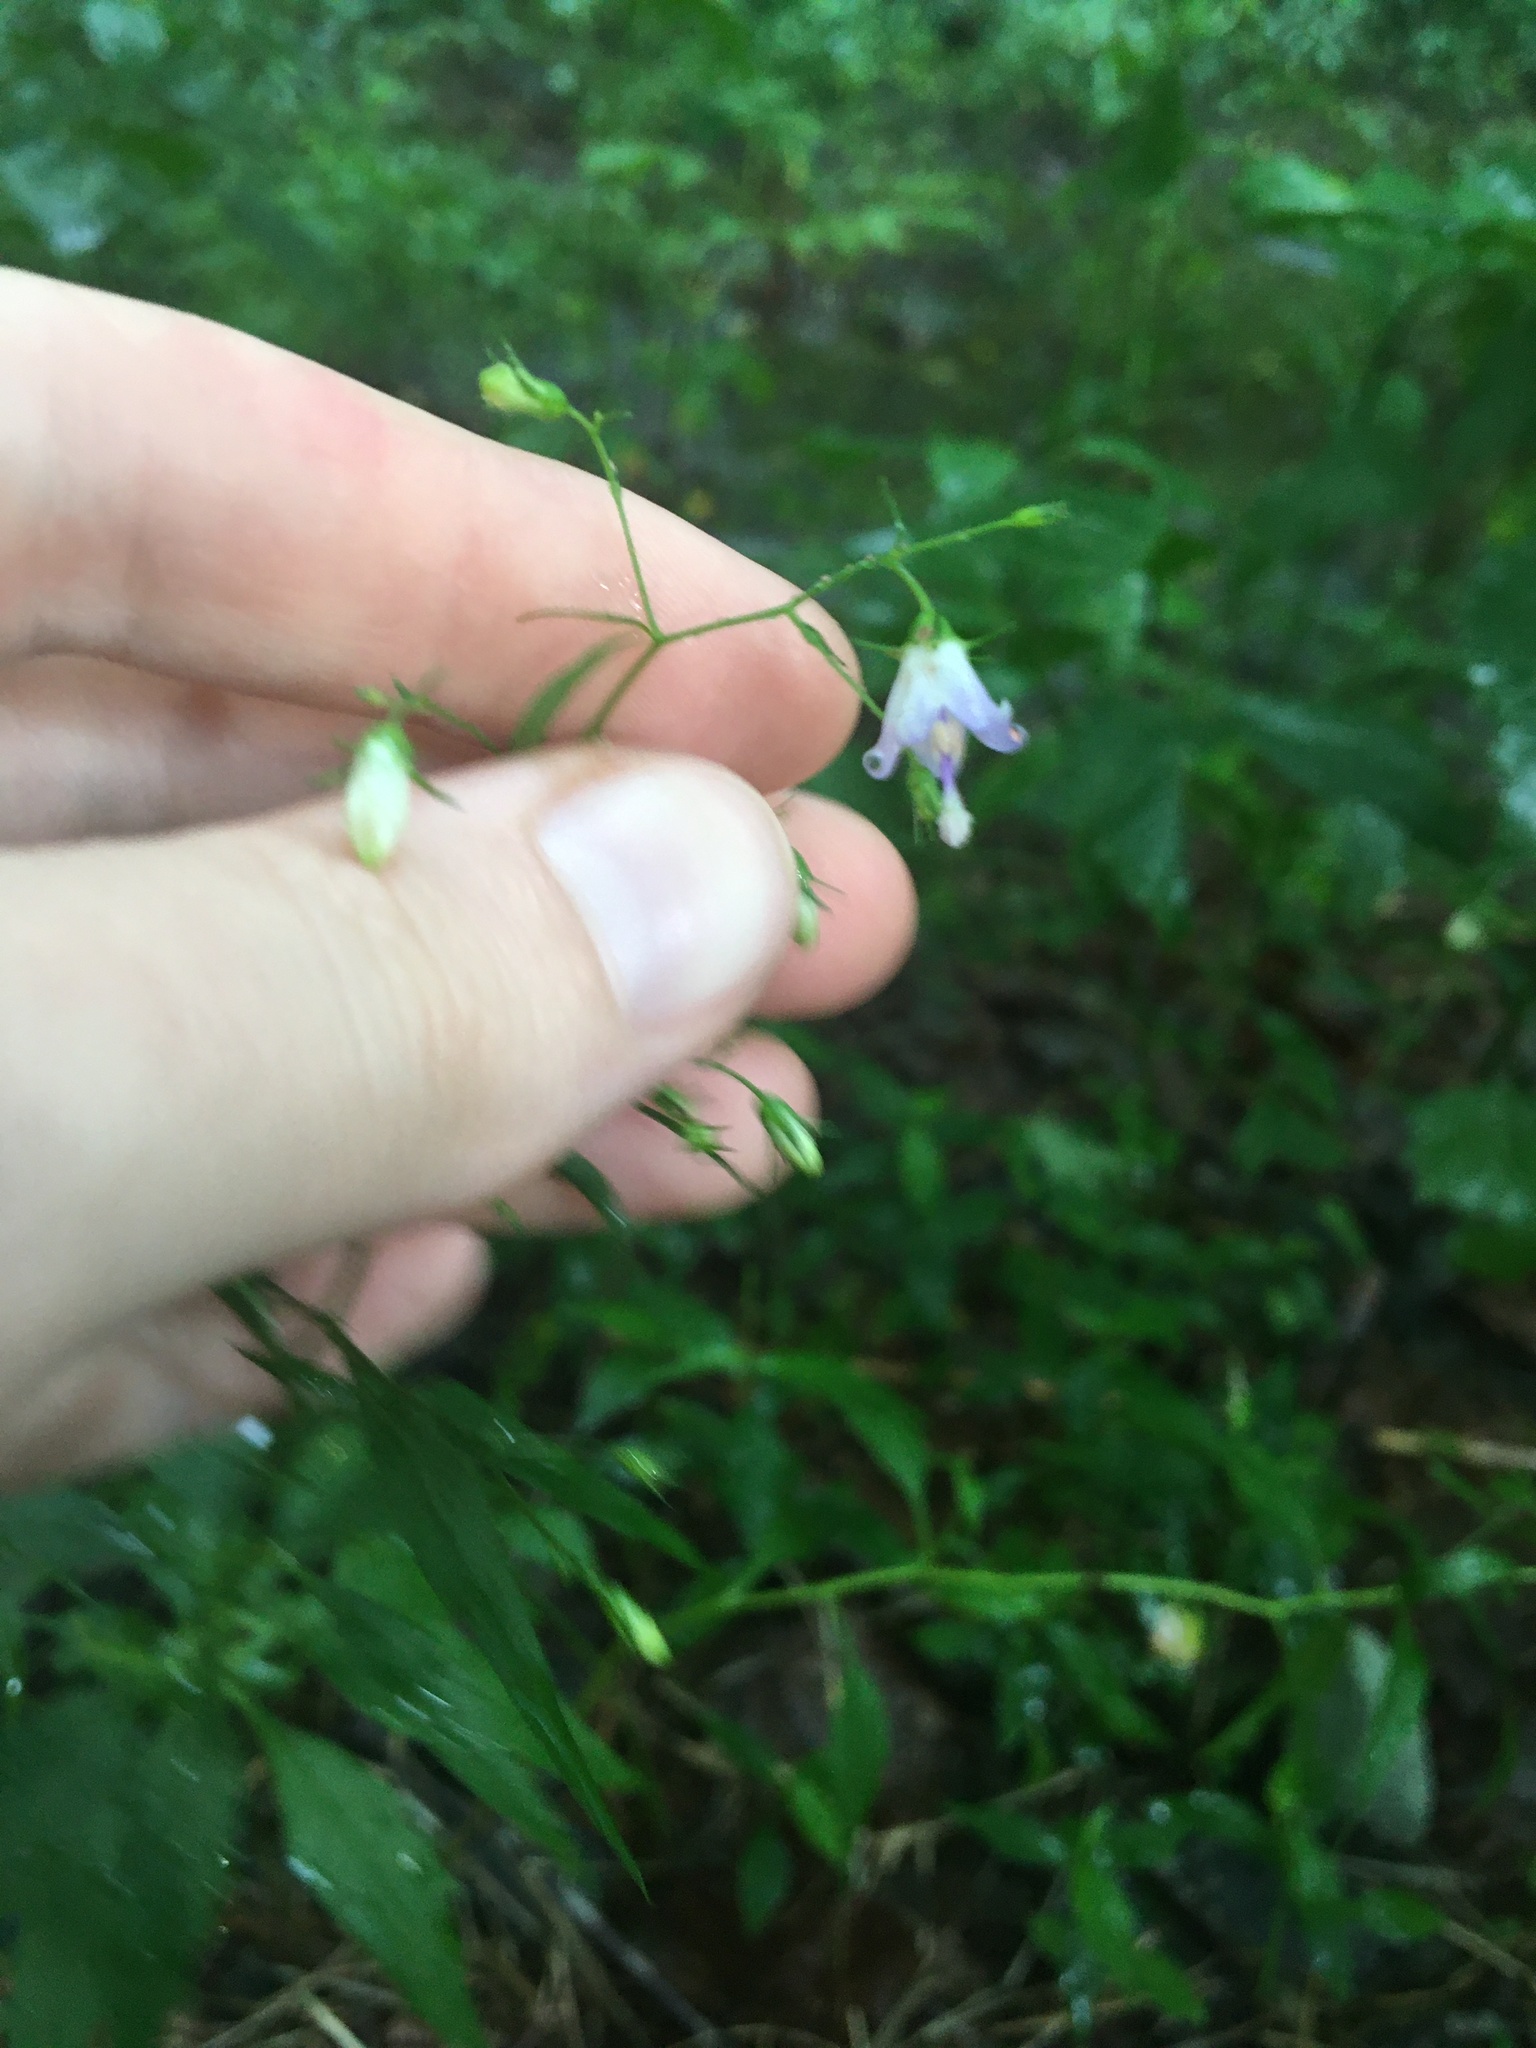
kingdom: Plantae
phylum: Tracheophyta
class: Magnoliopsida
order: Asterales
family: Campanulaceae
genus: Campanula
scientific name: Campanula divaricata
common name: Appalachian bellflower
